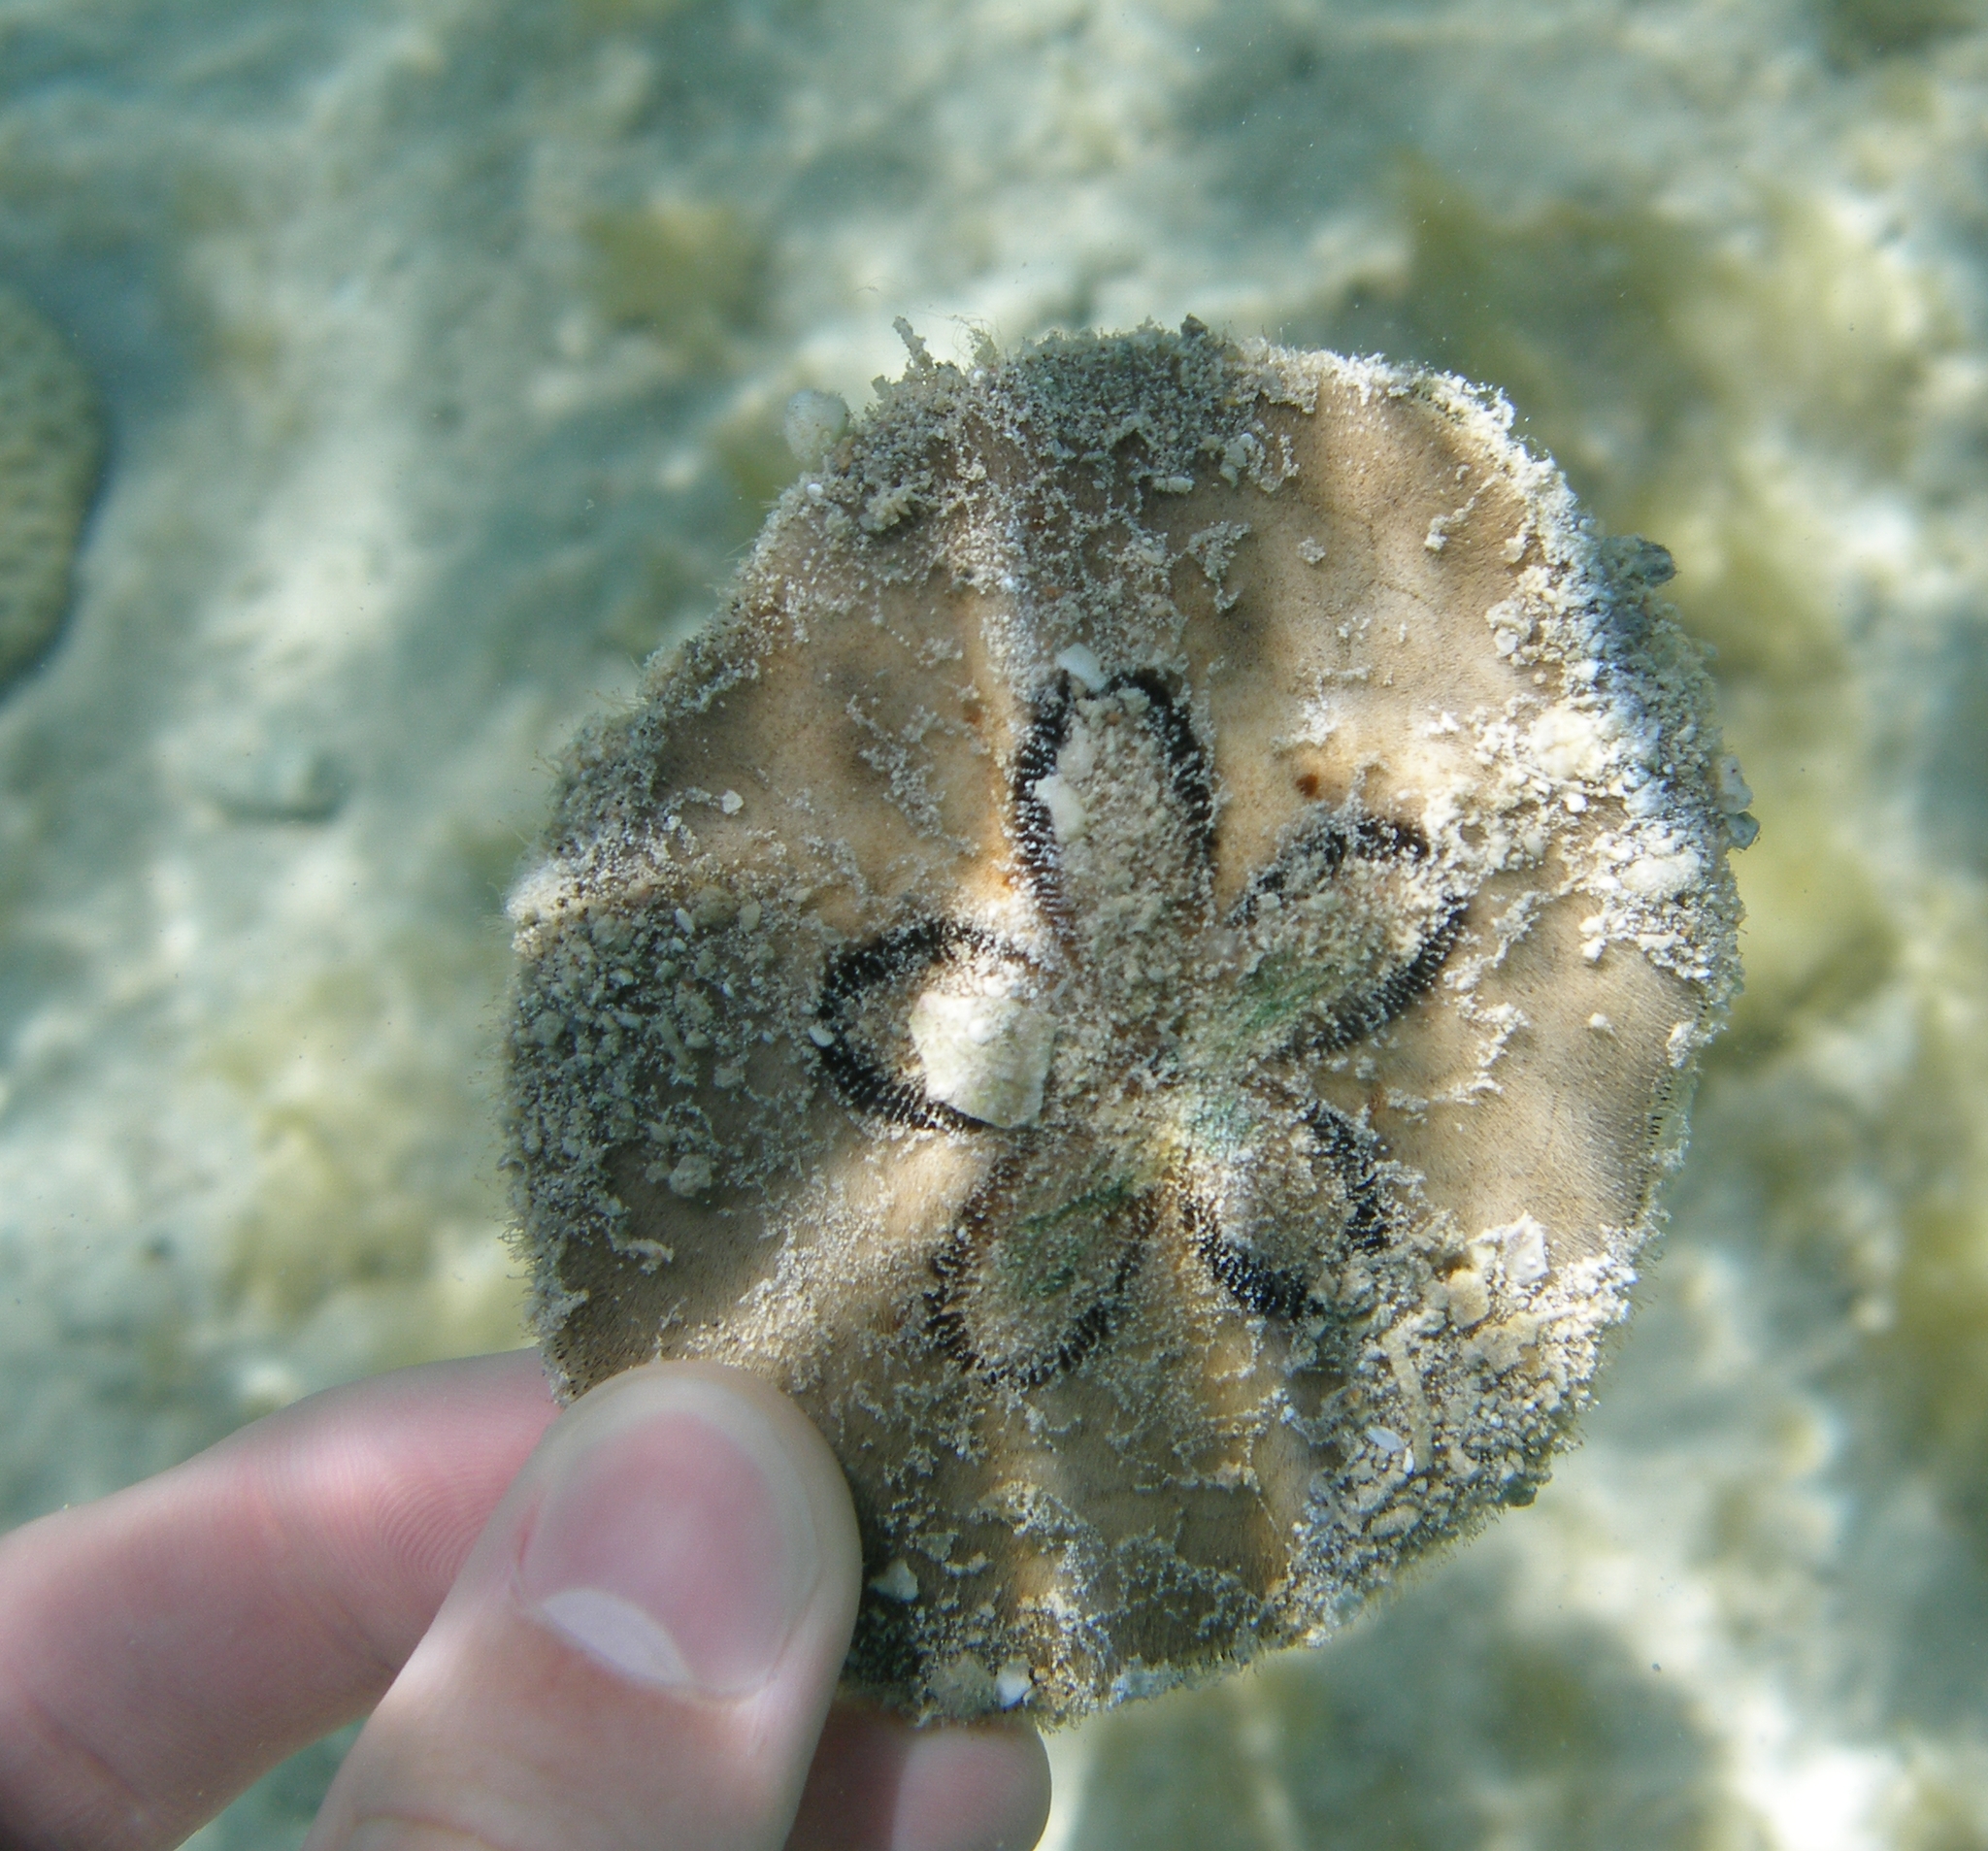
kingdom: Animalia
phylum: Echinodermata
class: Echinoidea
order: Clypeasteroida
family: Clypeasteridae
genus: Clypeaster
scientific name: Clypeaster humilis
